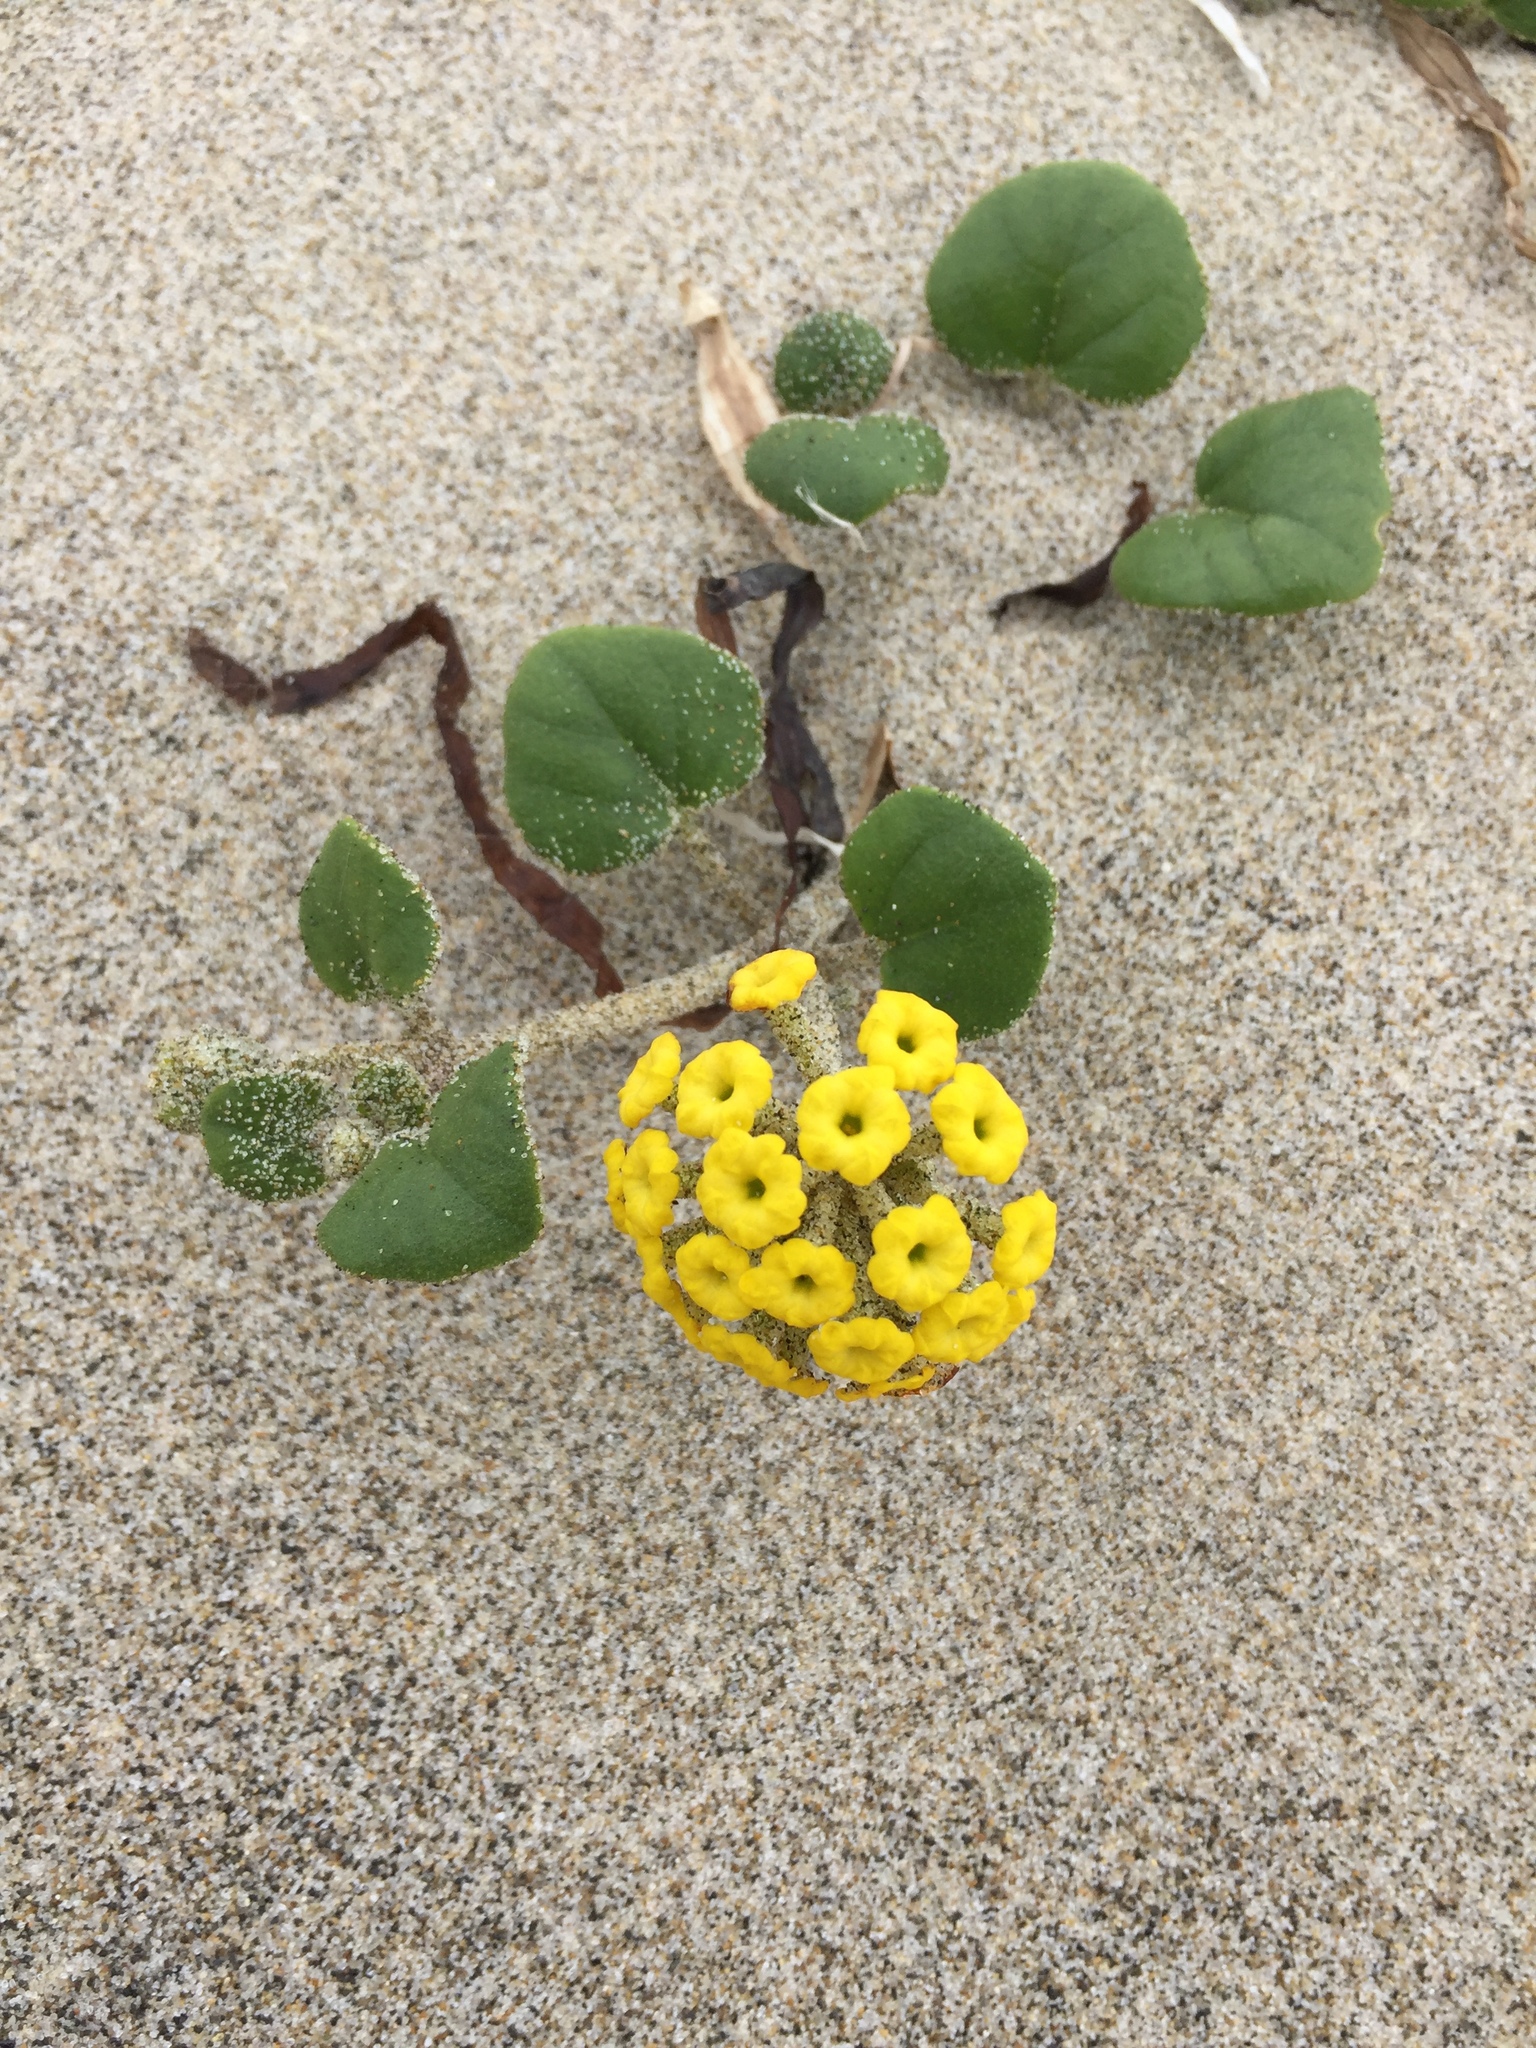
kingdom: Plantae
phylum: Tracheophyta
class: Magnoliopsida
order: Caryophyllales
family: Nyctaginaceae
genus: Abronia
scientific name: Abronia latifolia
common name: Yellow sand-verbena
